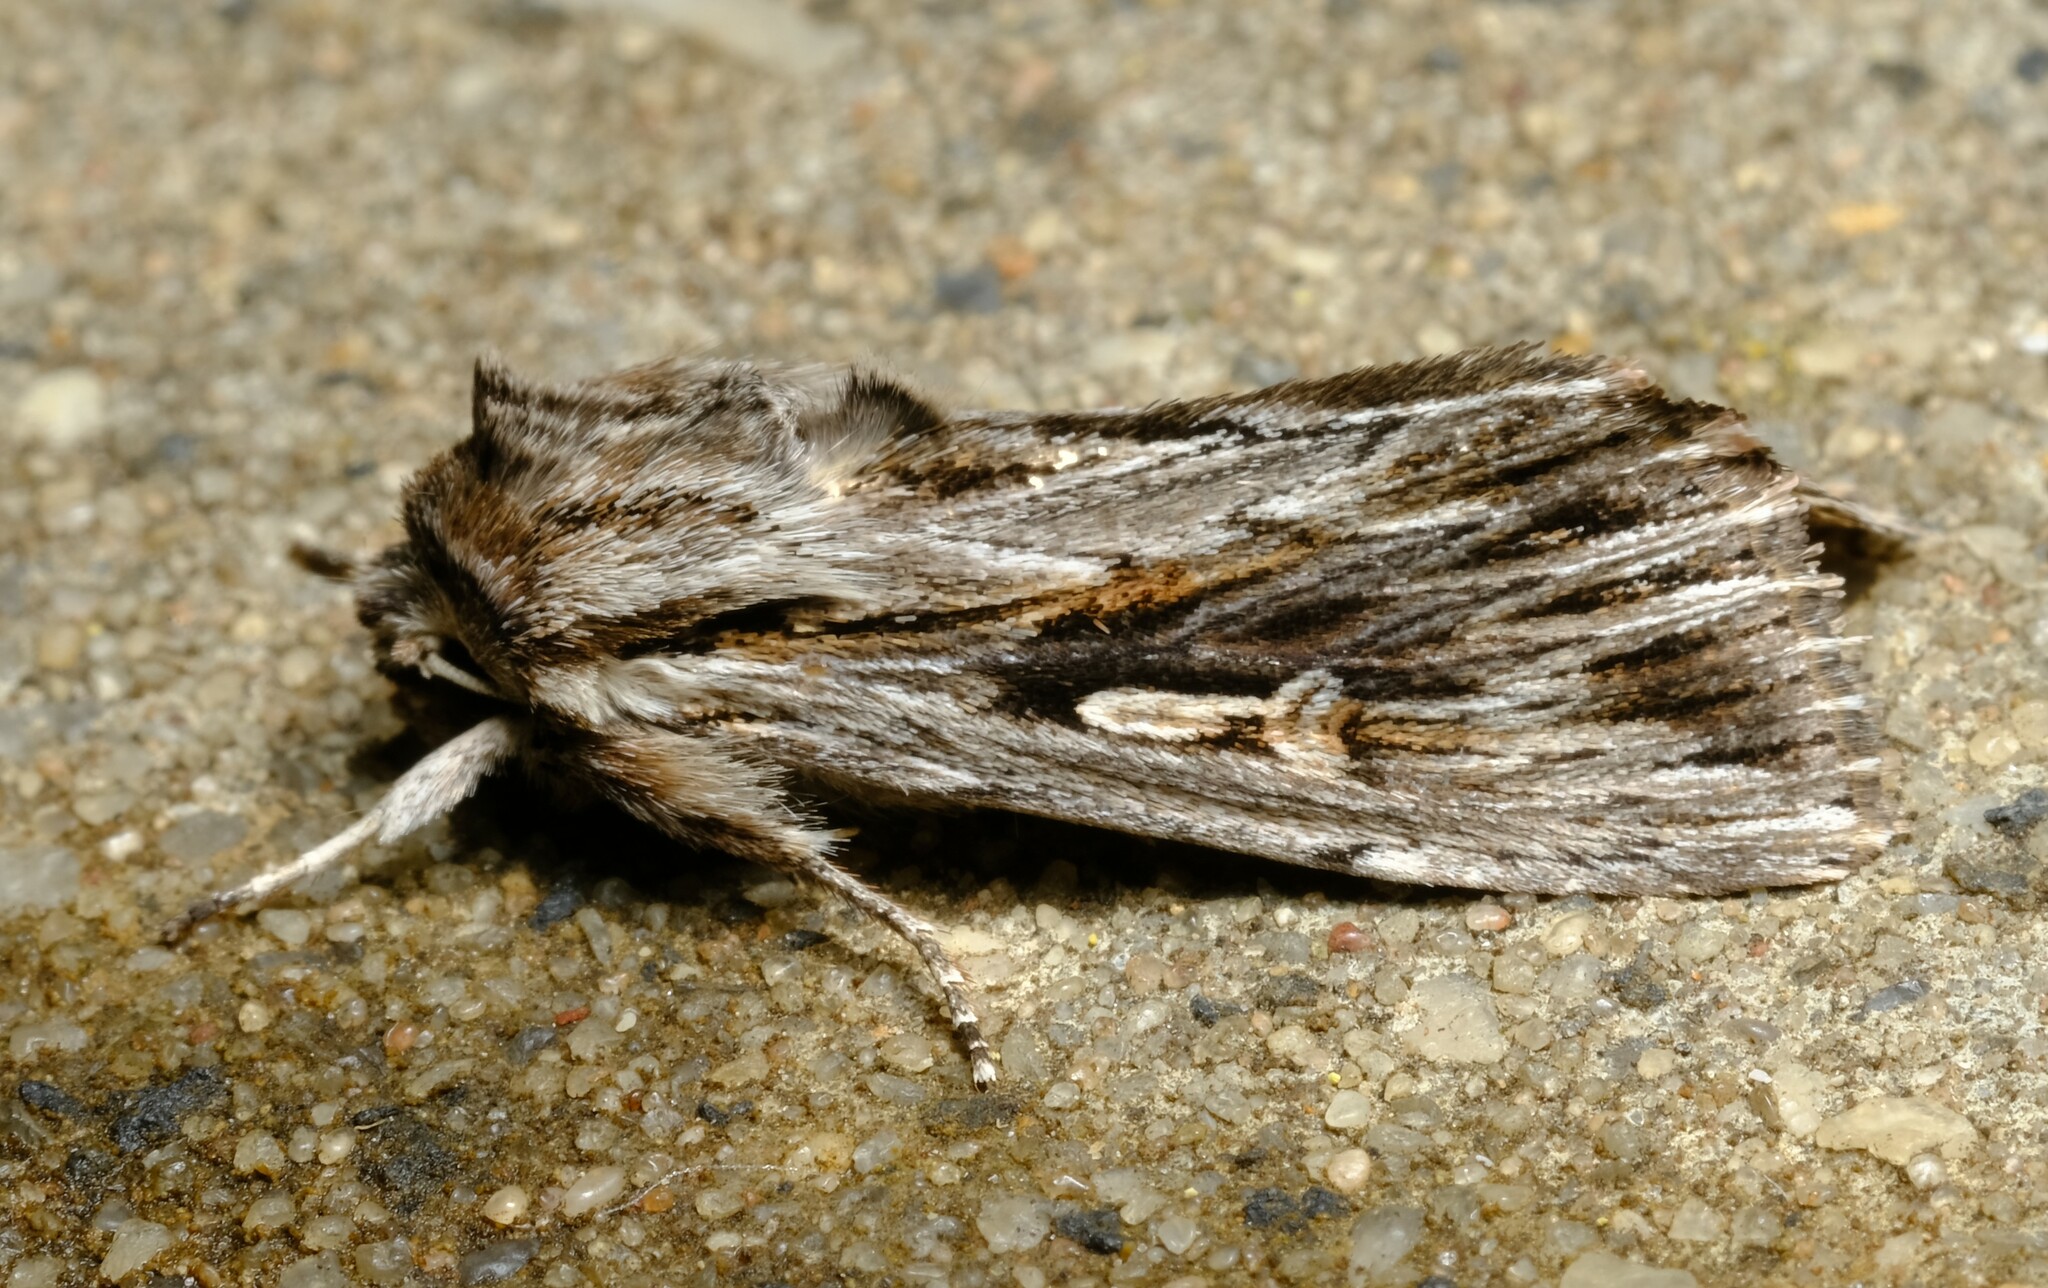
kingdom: Animalia
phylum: Arthropoda
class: Insecta
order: Lepidoptera
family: Noctuidae
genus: Persectania
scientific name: Persectania ewingii
